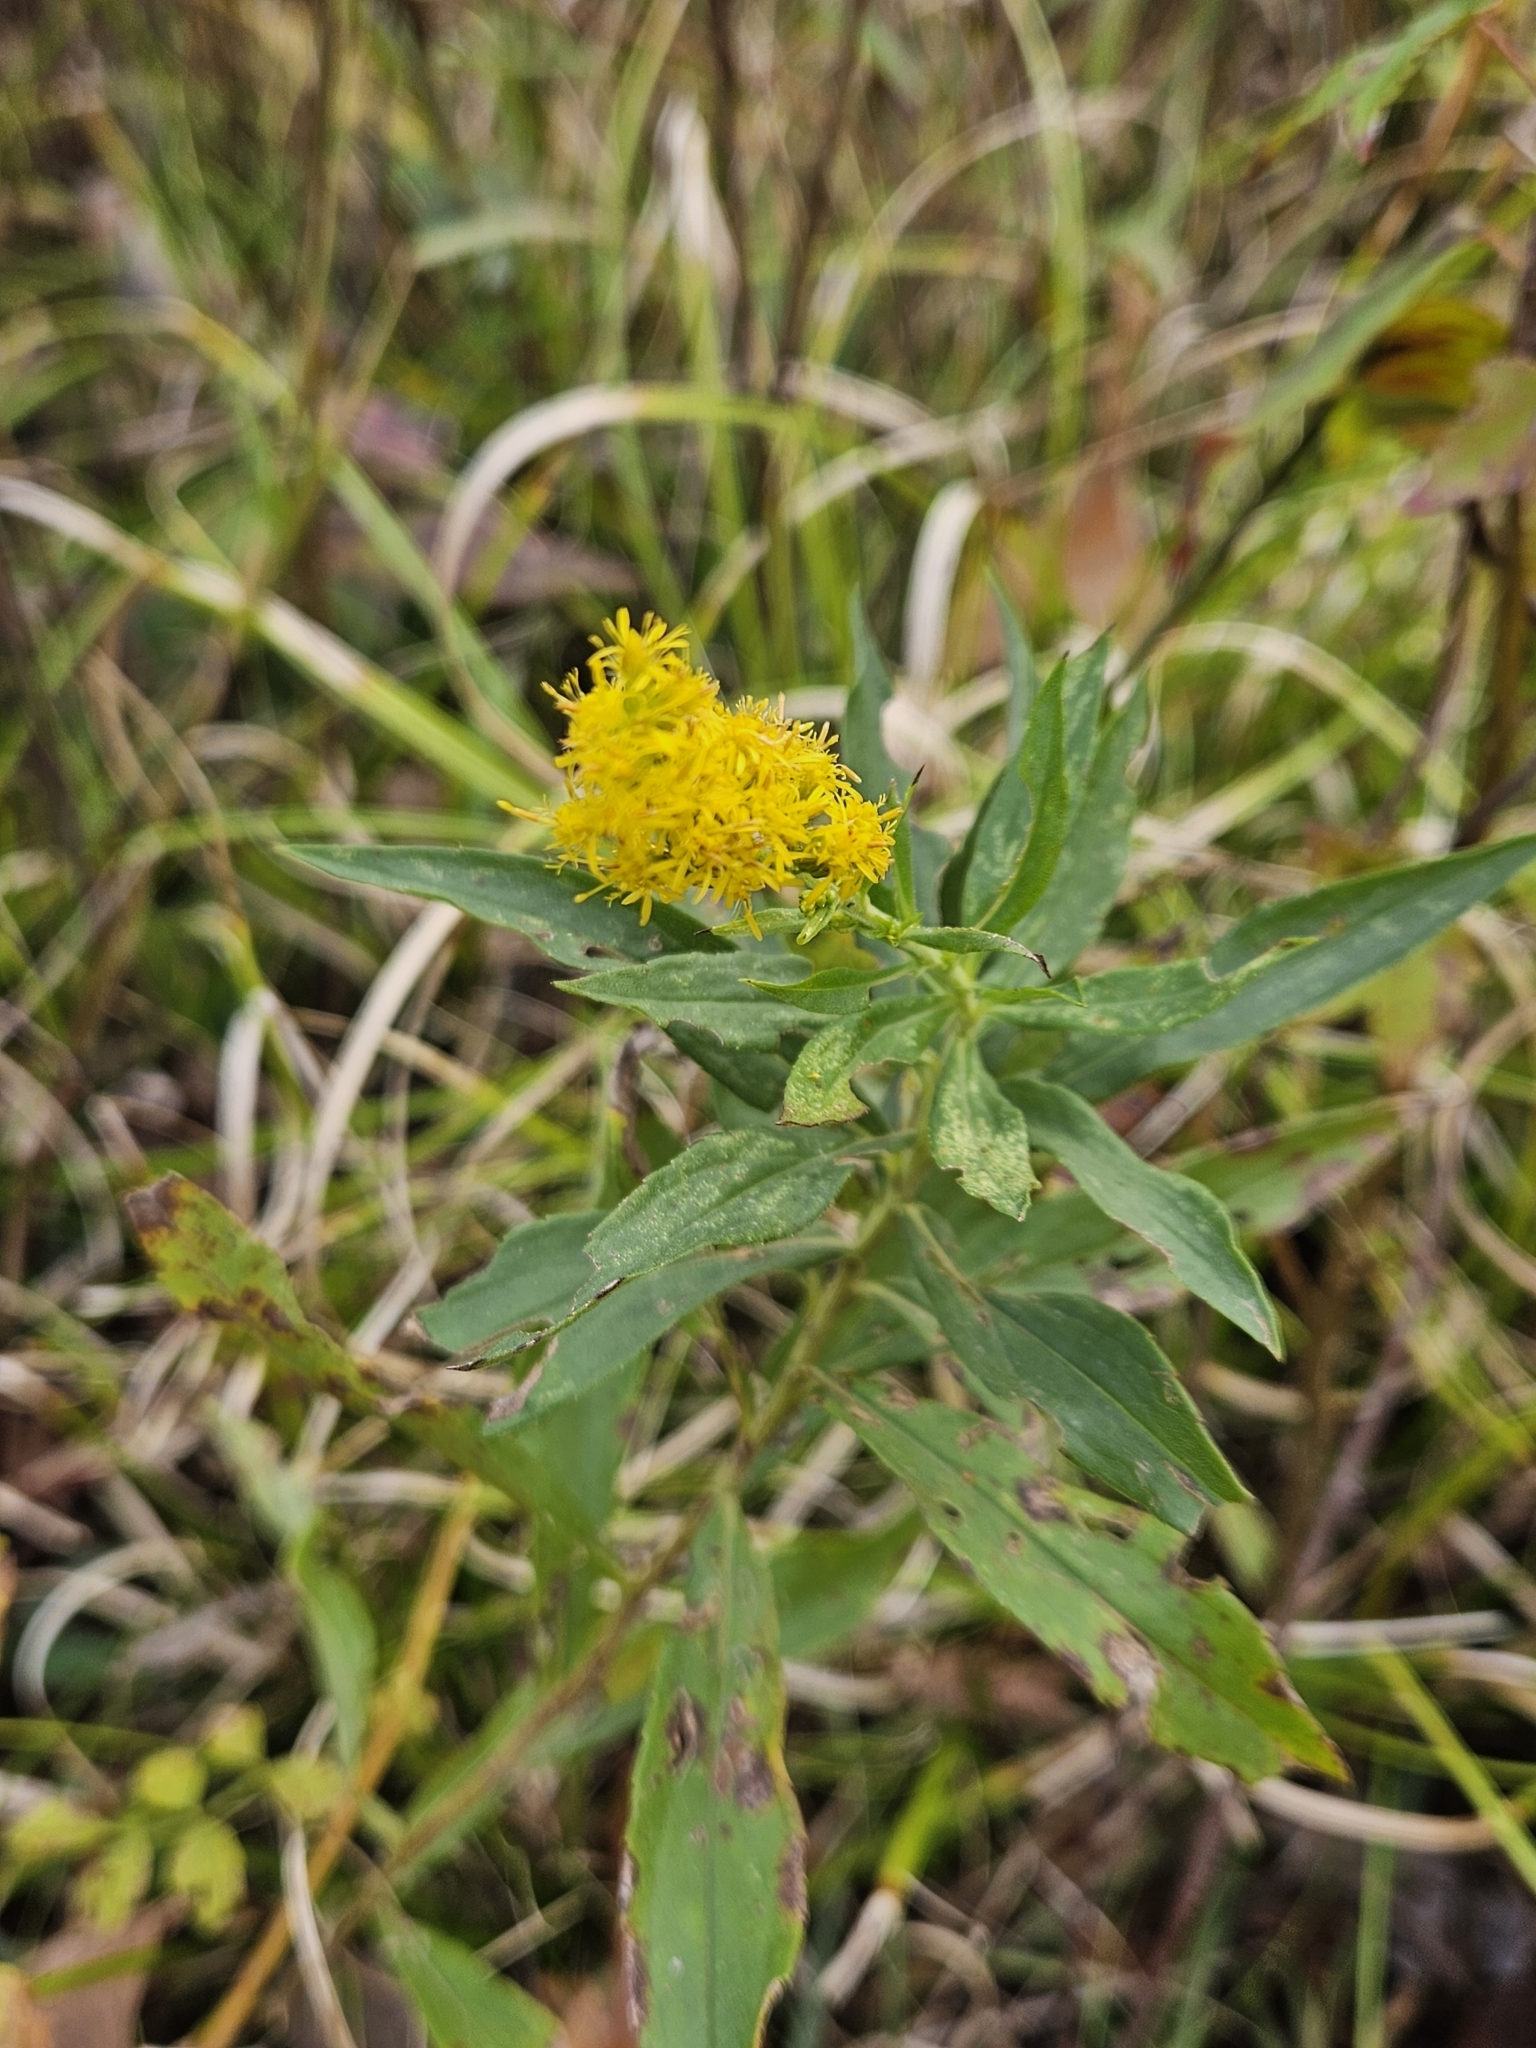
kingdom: Plantae
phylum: Tracheophyta
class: Magnoliopsida
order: Asterales
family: Asteraceae
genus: Solidago
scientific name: Solidago altissima
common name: Late goldenrod
